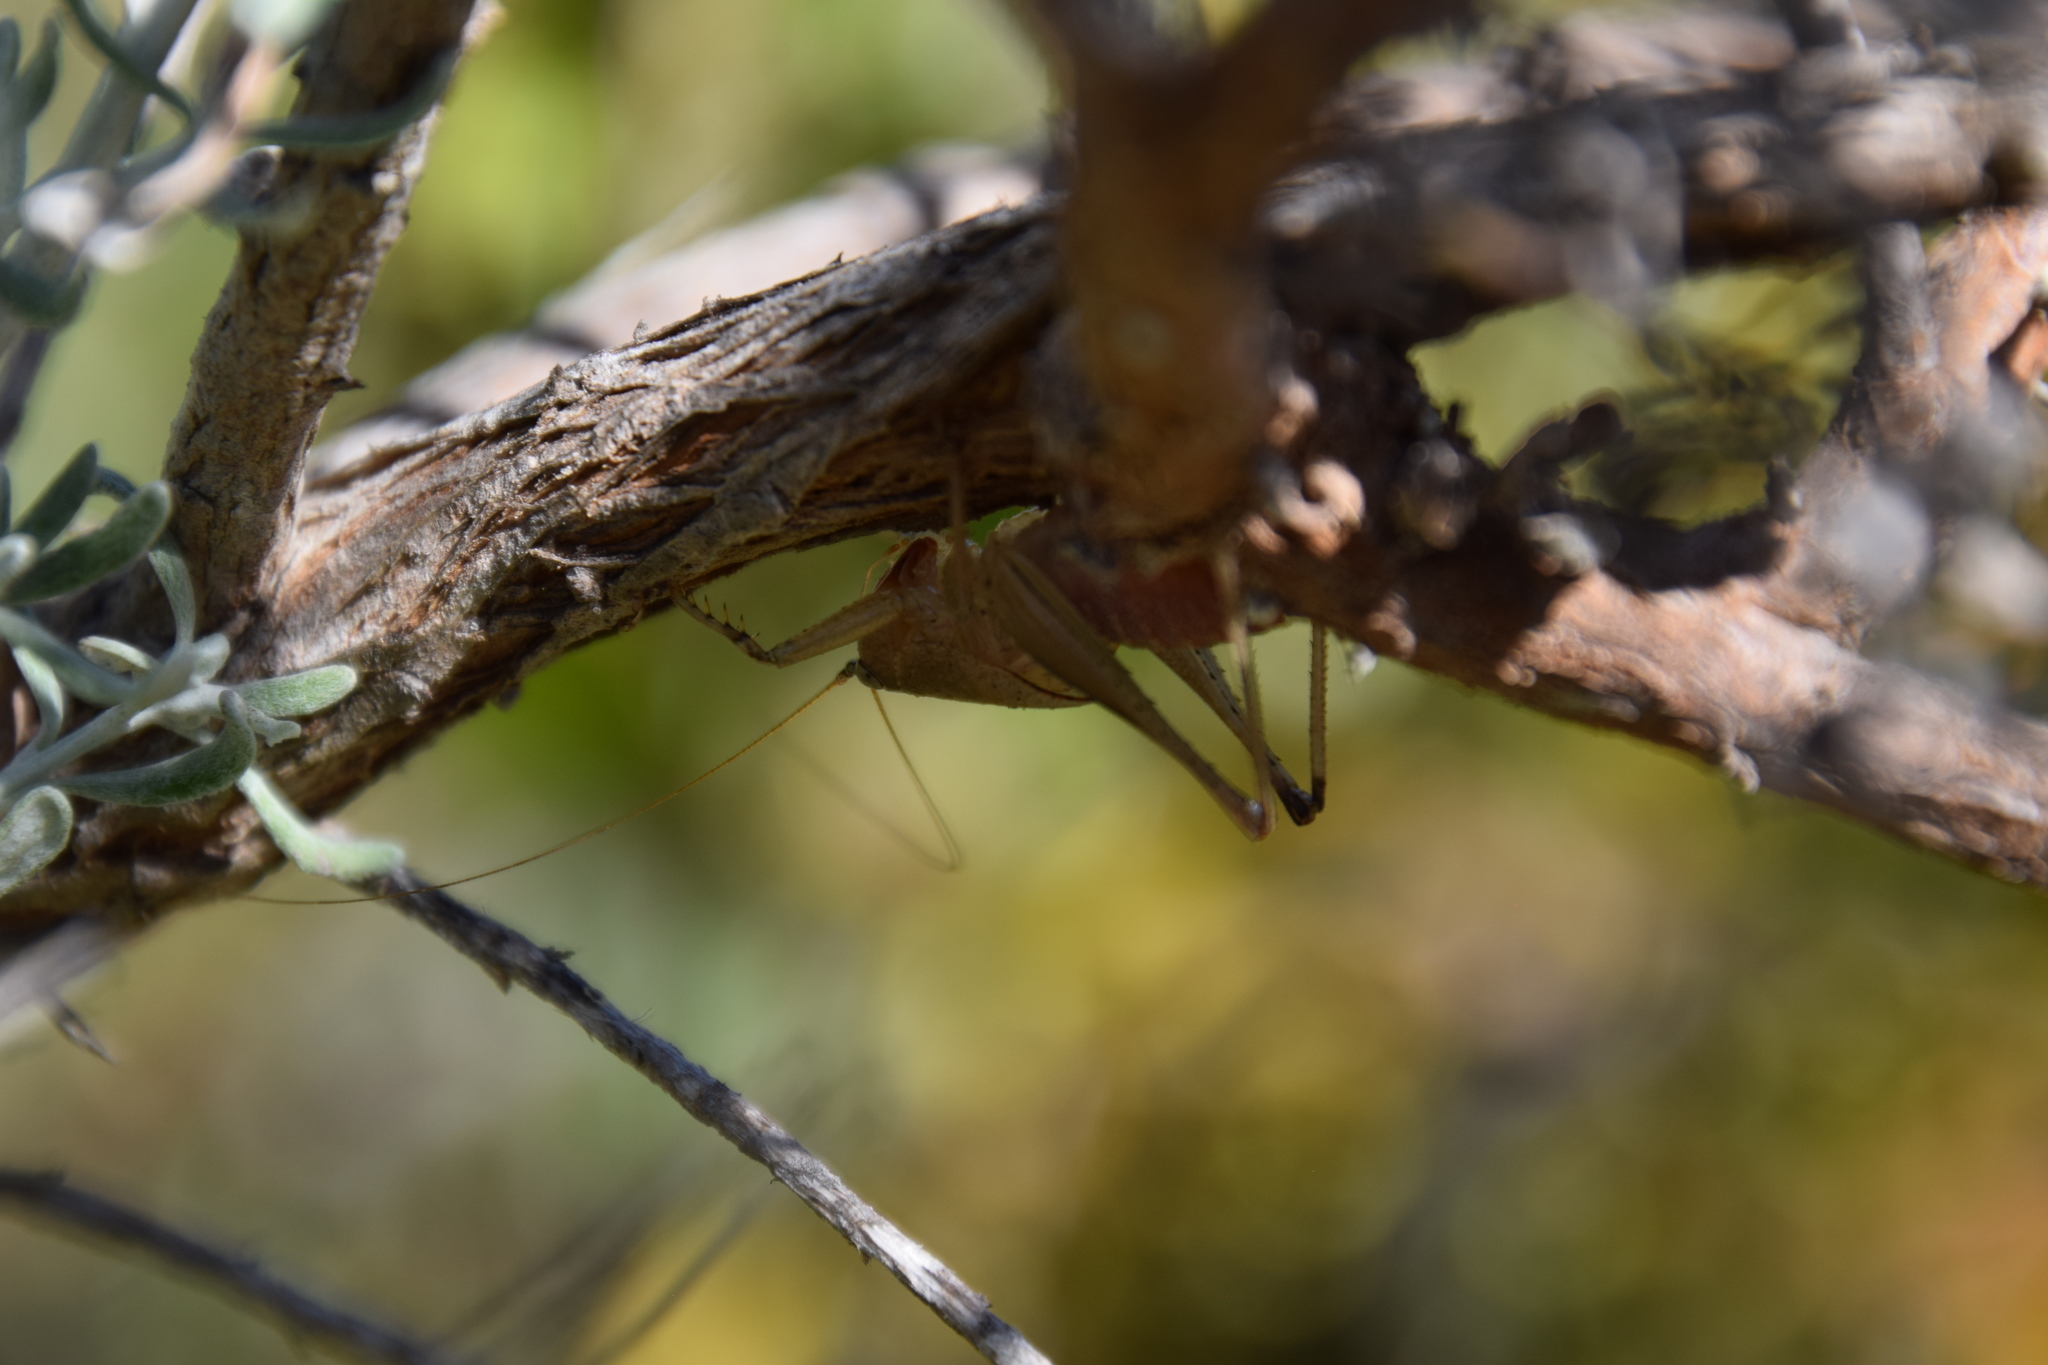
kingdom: Animalia
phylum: Arthropoda
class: Insecta
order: Orthoptera
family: Tettigoniidae
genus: Requena
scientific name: Requena verticalis
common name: Common western requena
